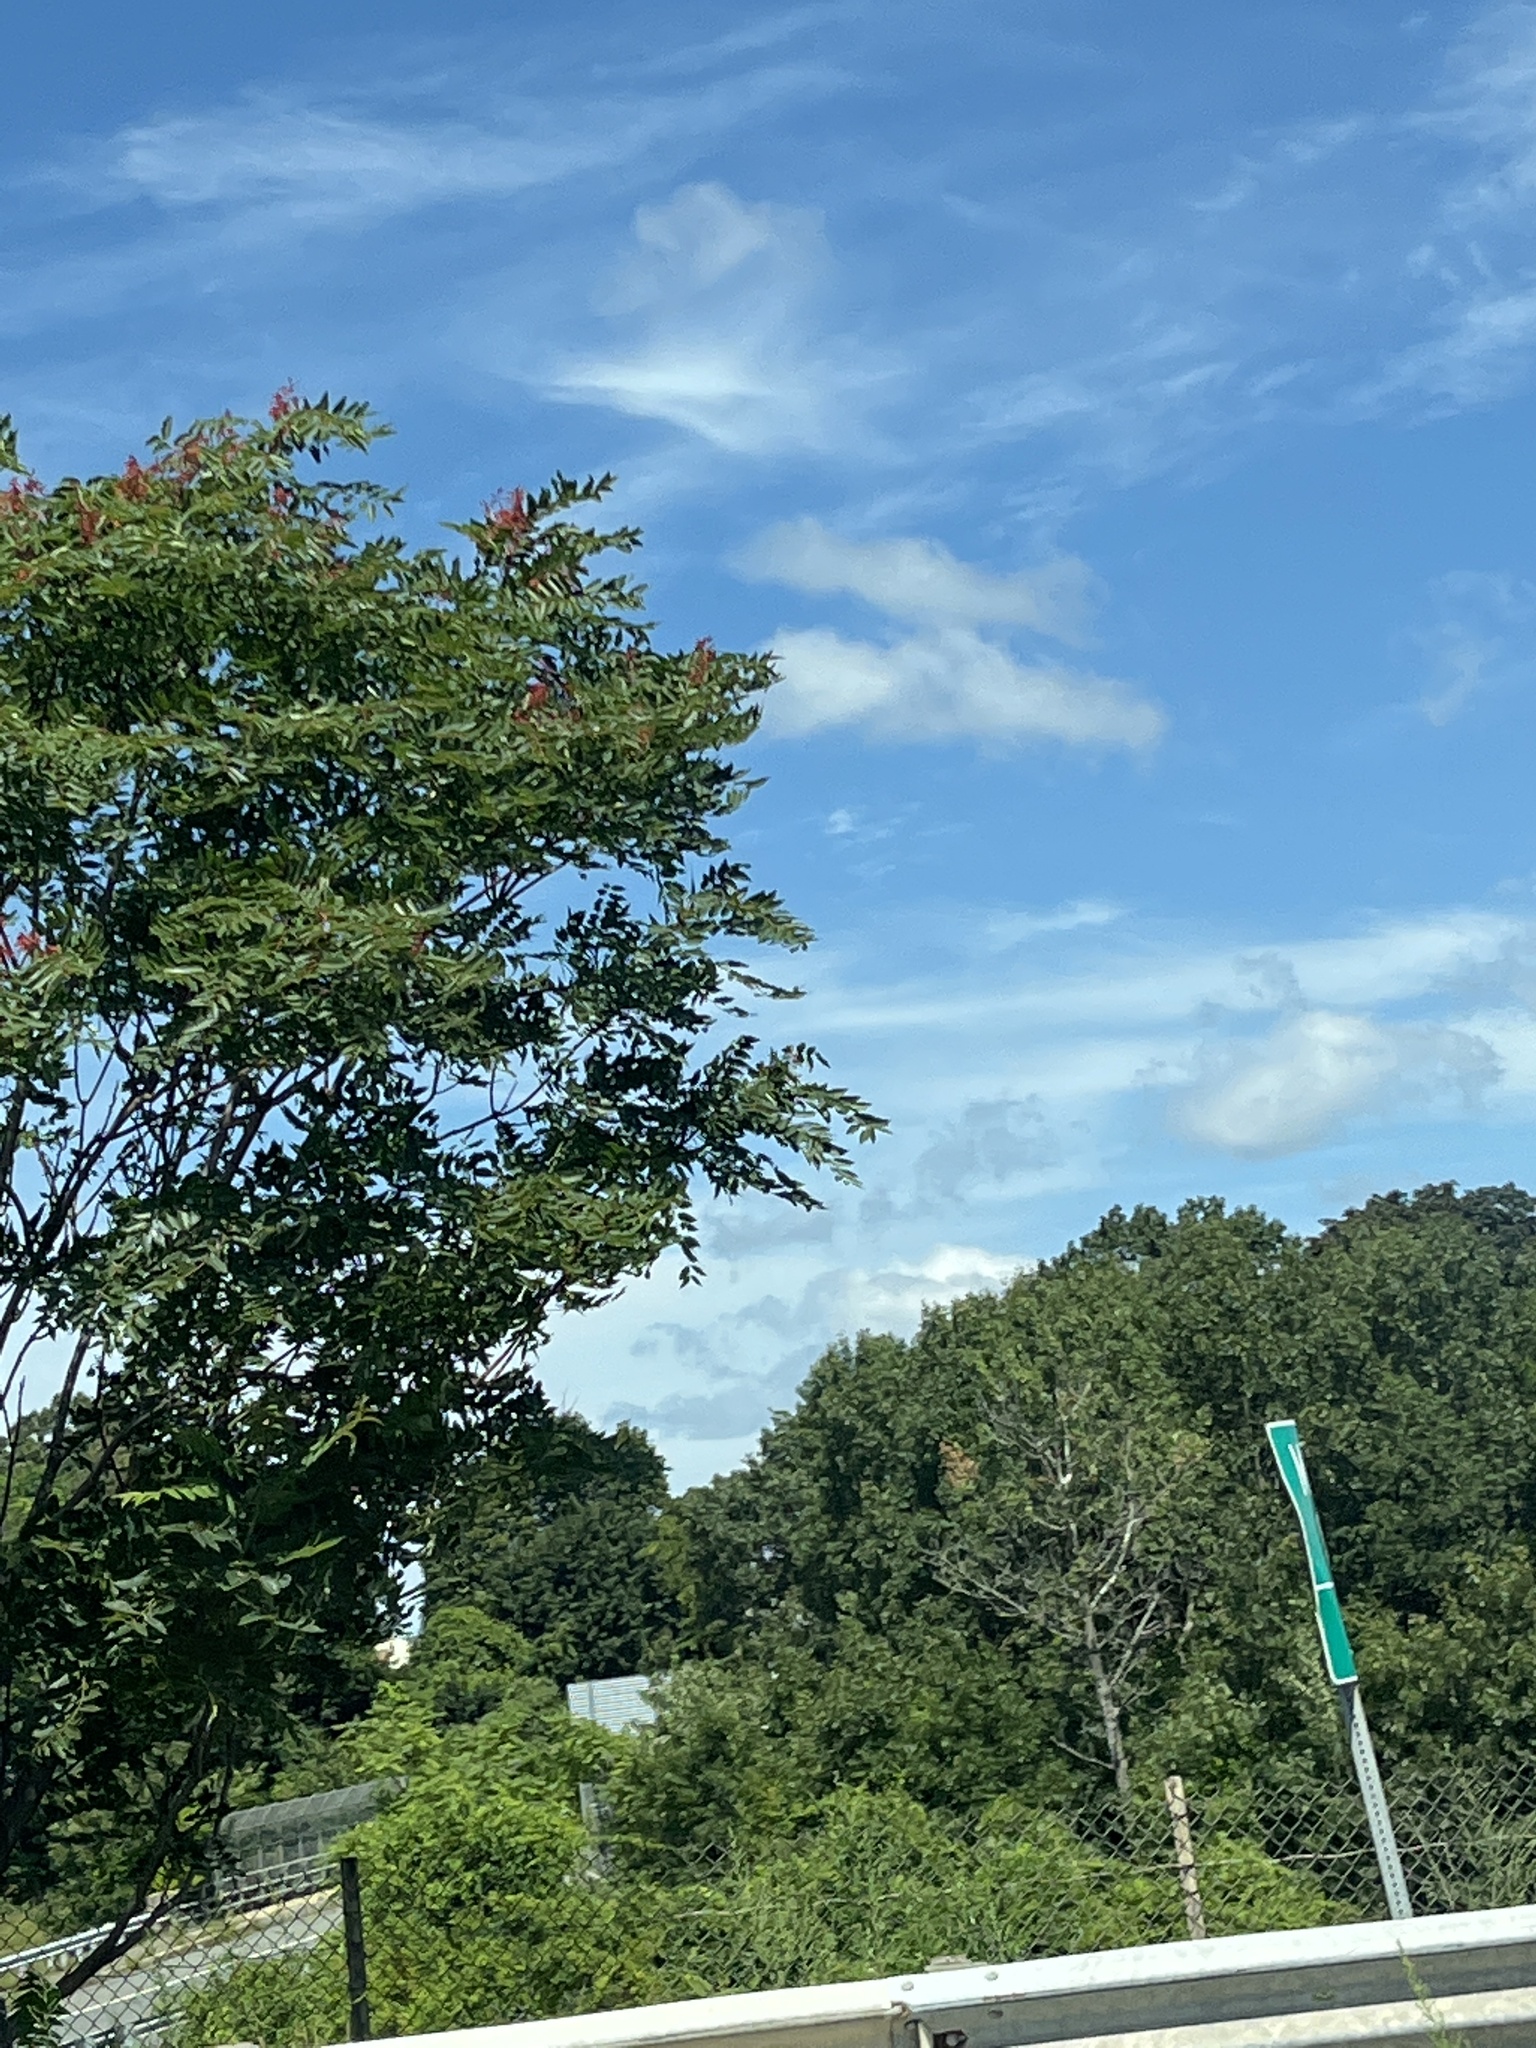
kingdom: Plantae
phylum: Tracheophyta
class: Magnoliopsida
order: Sapindales
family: Simaroubaceae
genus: Ailanthus
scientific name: Ailanthus altissima
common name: Tree-of-heaven
